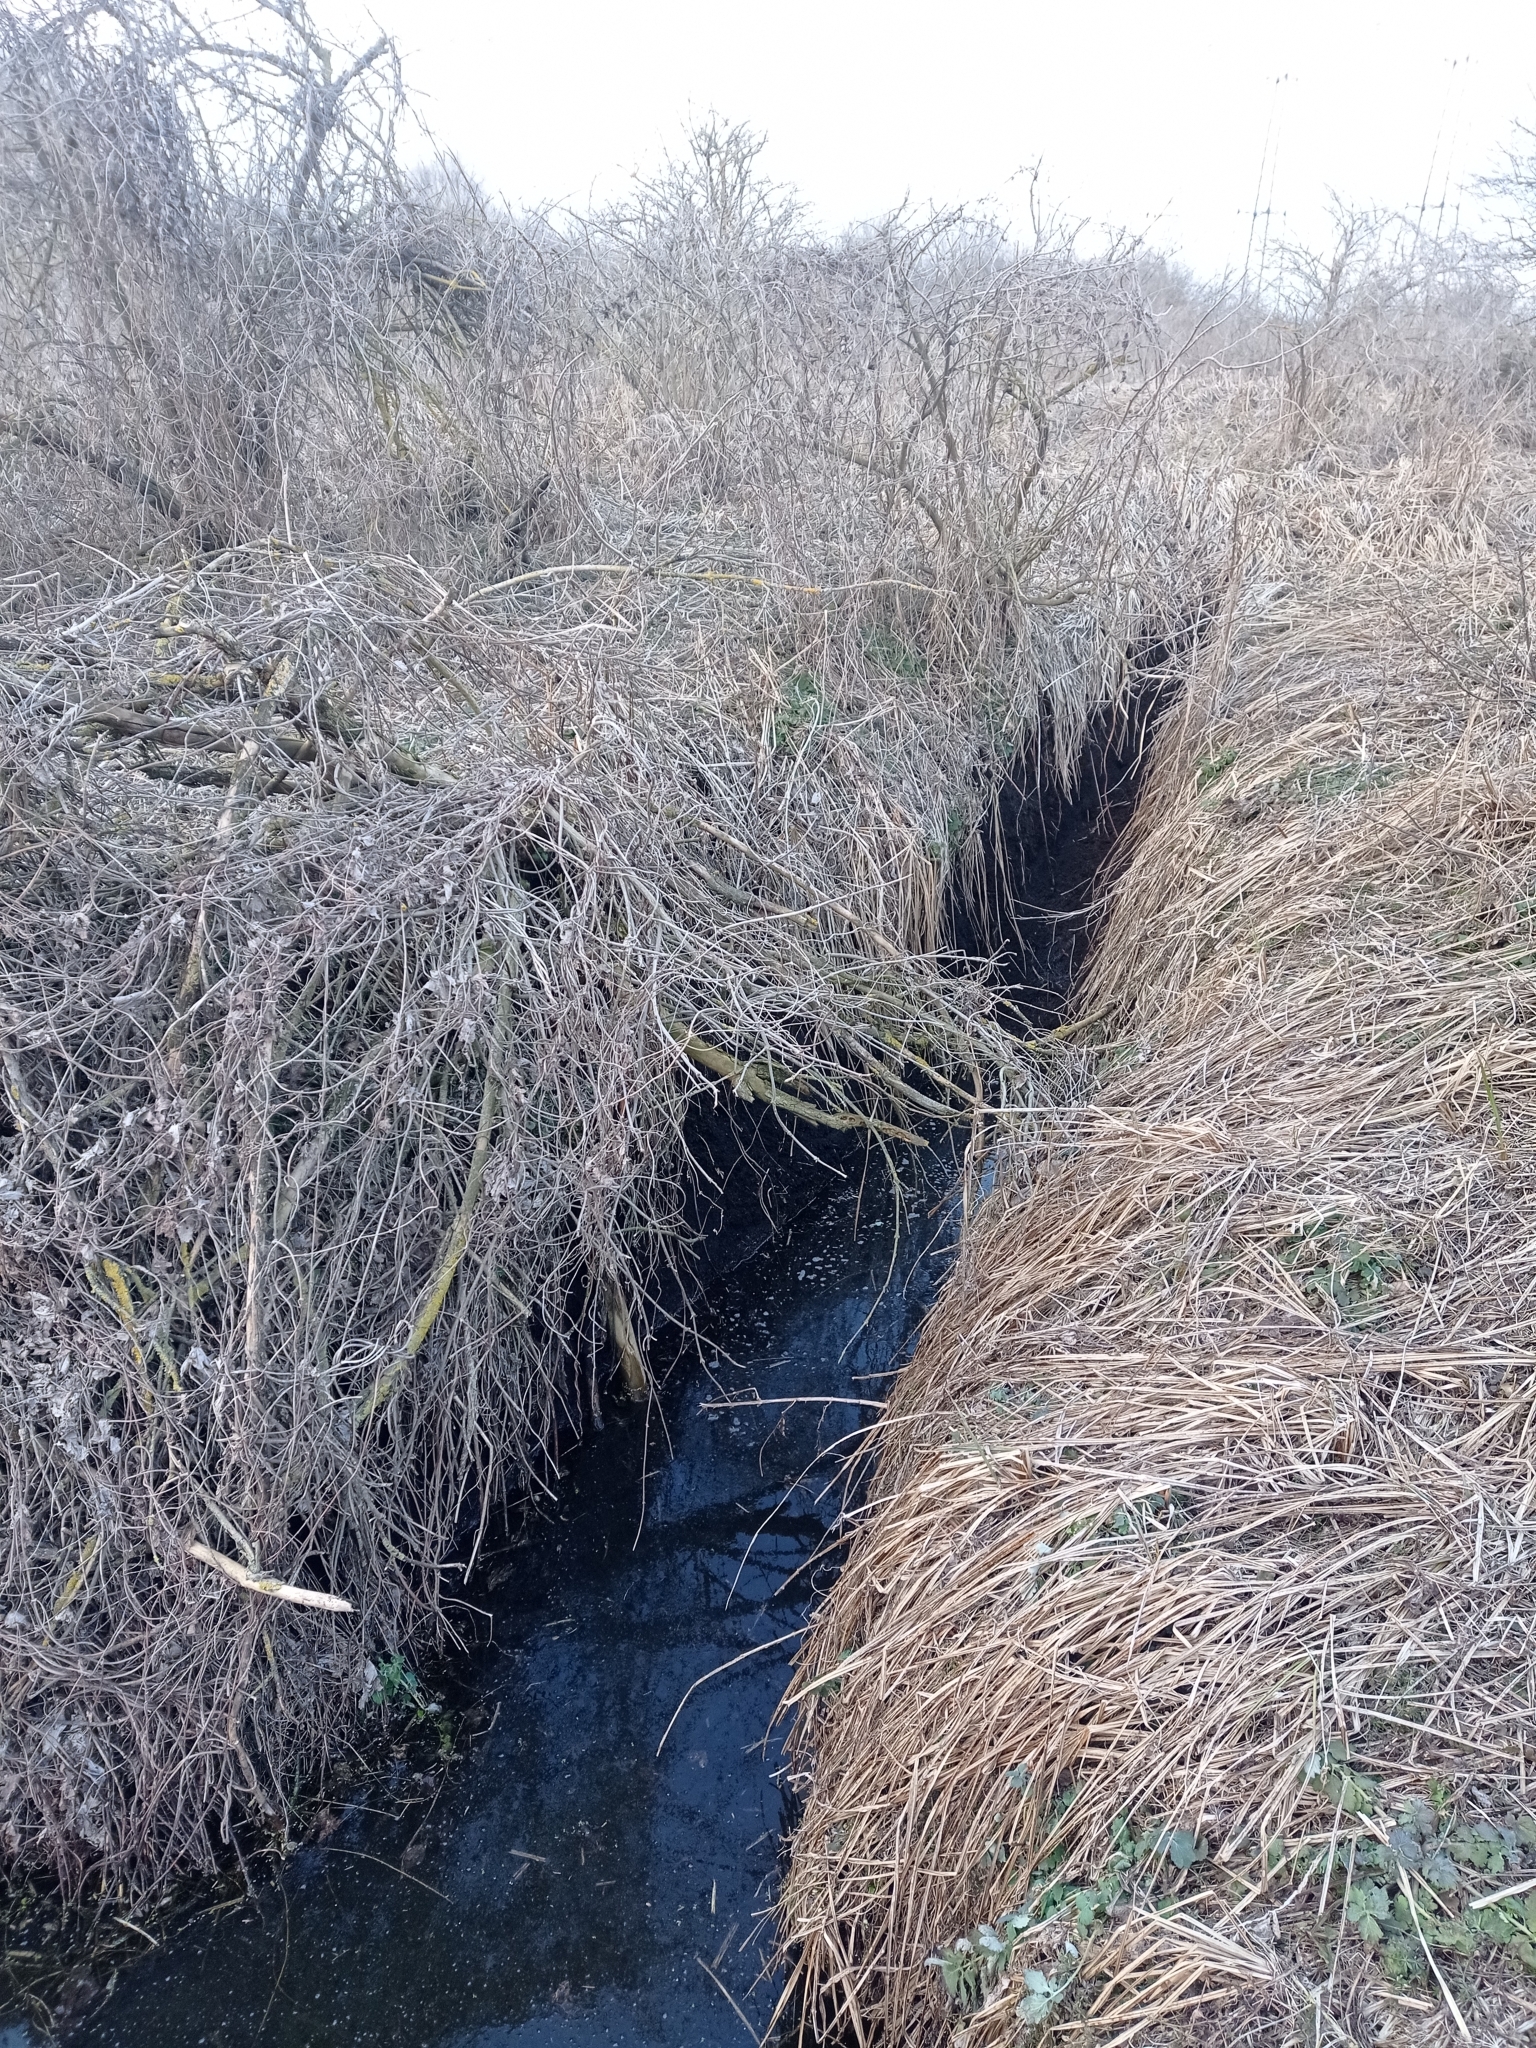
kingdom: Animalia
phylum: Chordata
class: Mammalia
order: Rodentia
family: Castoridae
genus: Castor
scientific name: Castor fiber
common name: Eurasian beaver
